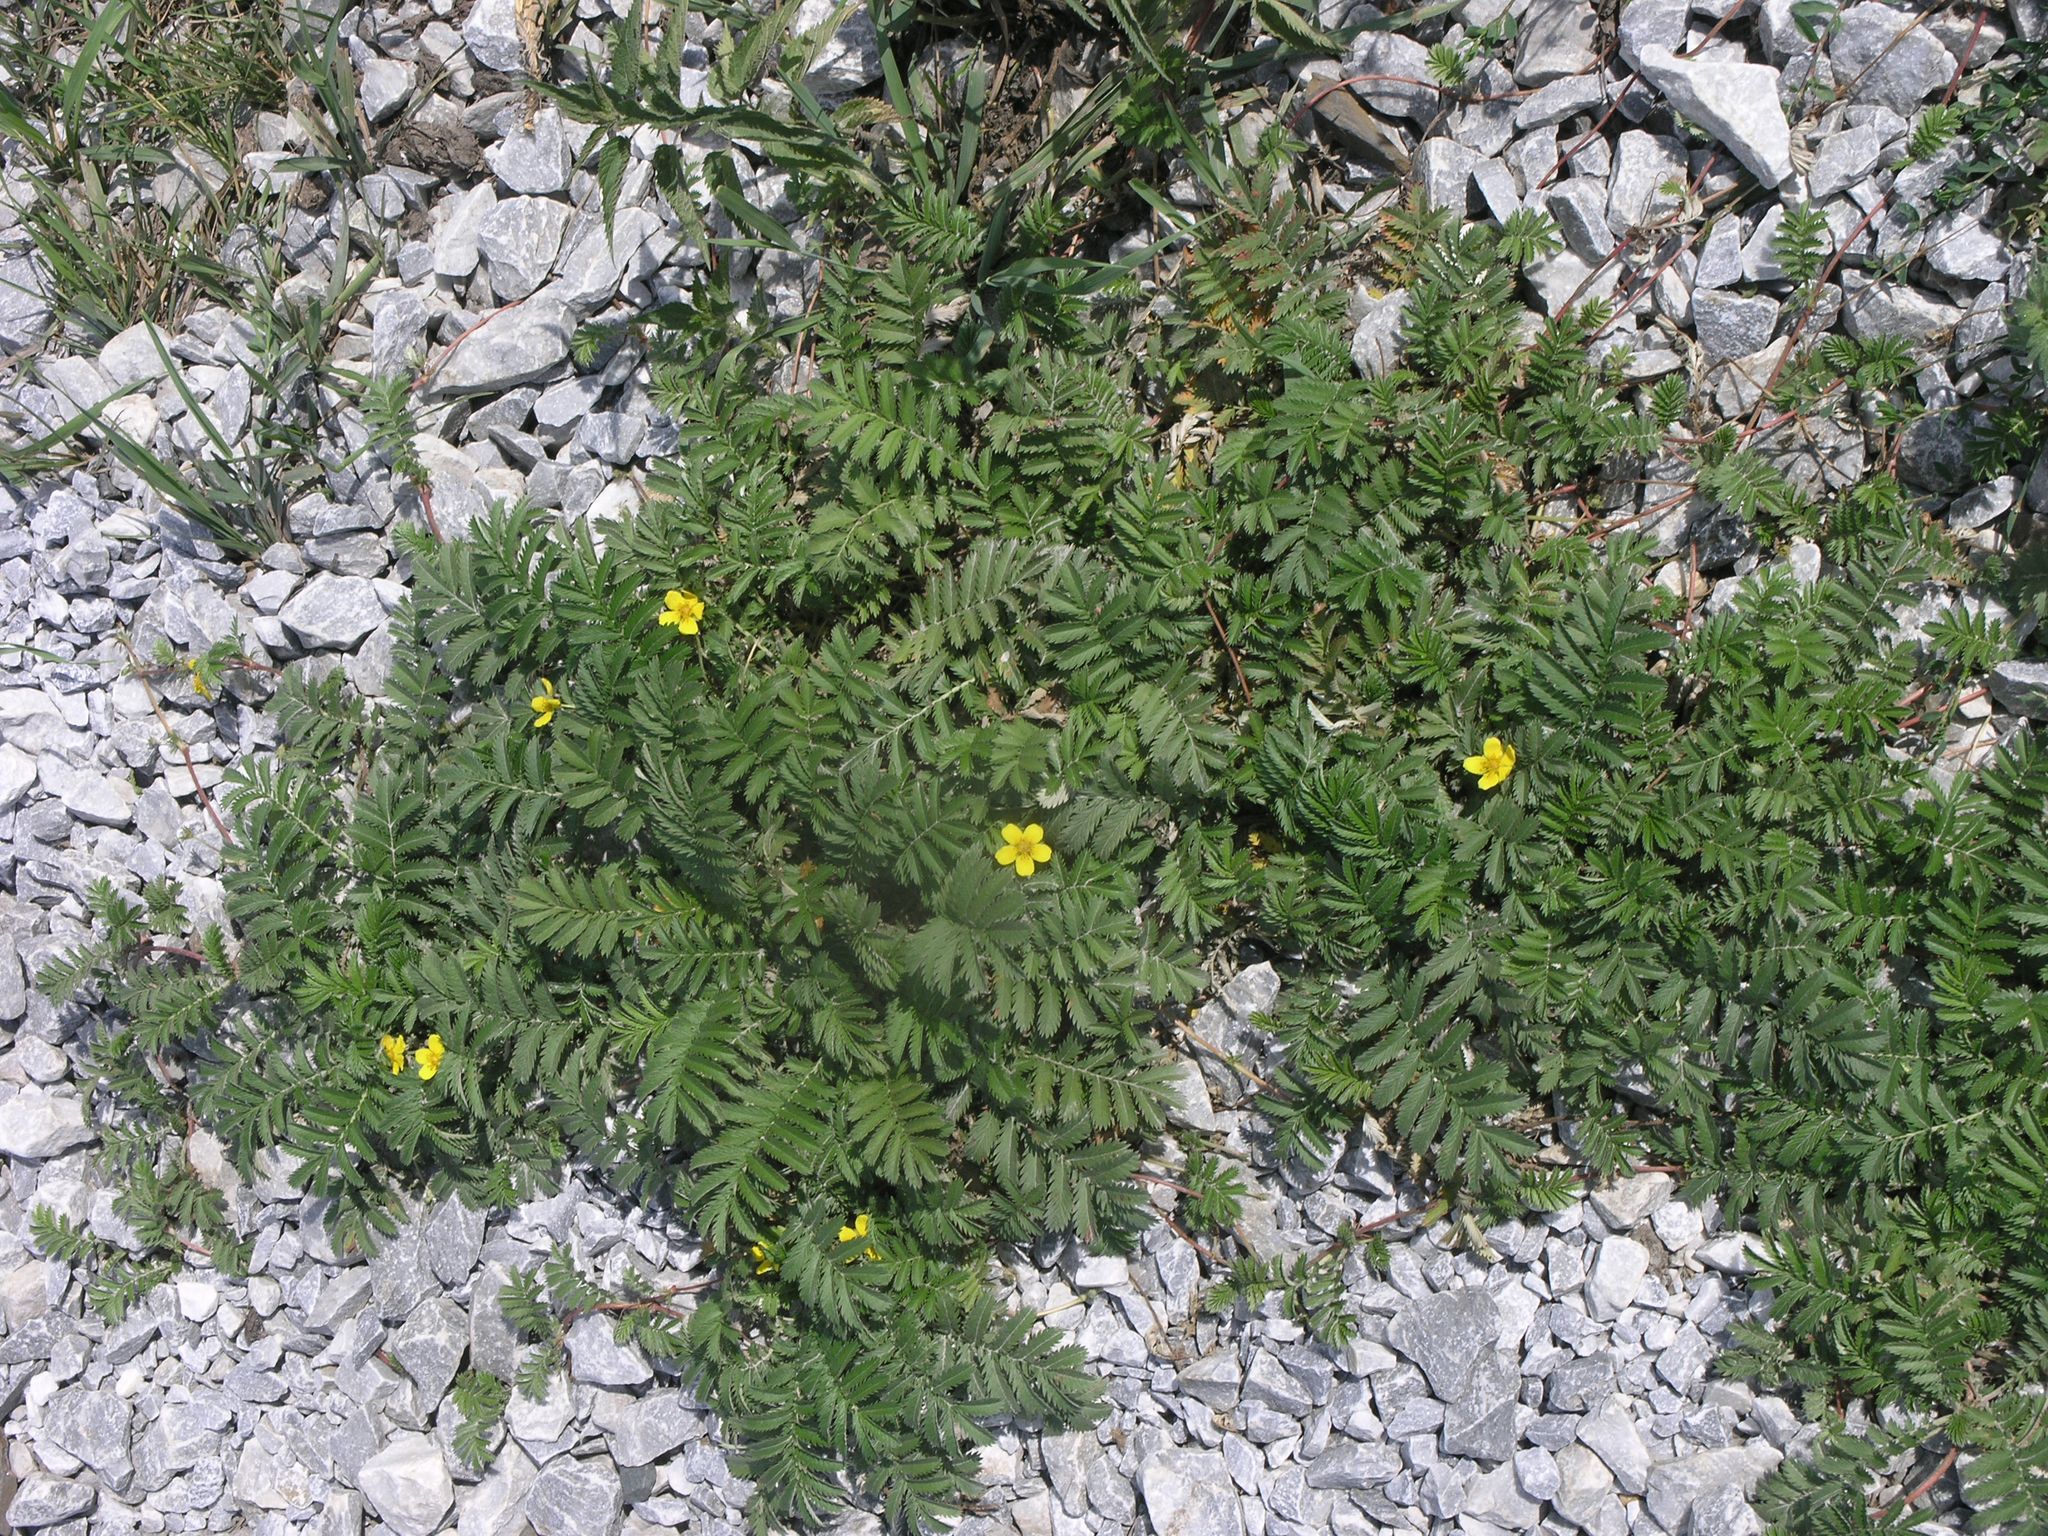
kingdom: Plantae
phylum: Tracheophyta
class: Magnoliopsida
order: Rosales
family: Rosaceae
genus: Argentina
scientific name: Argentina anserina
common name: Common silverweed
